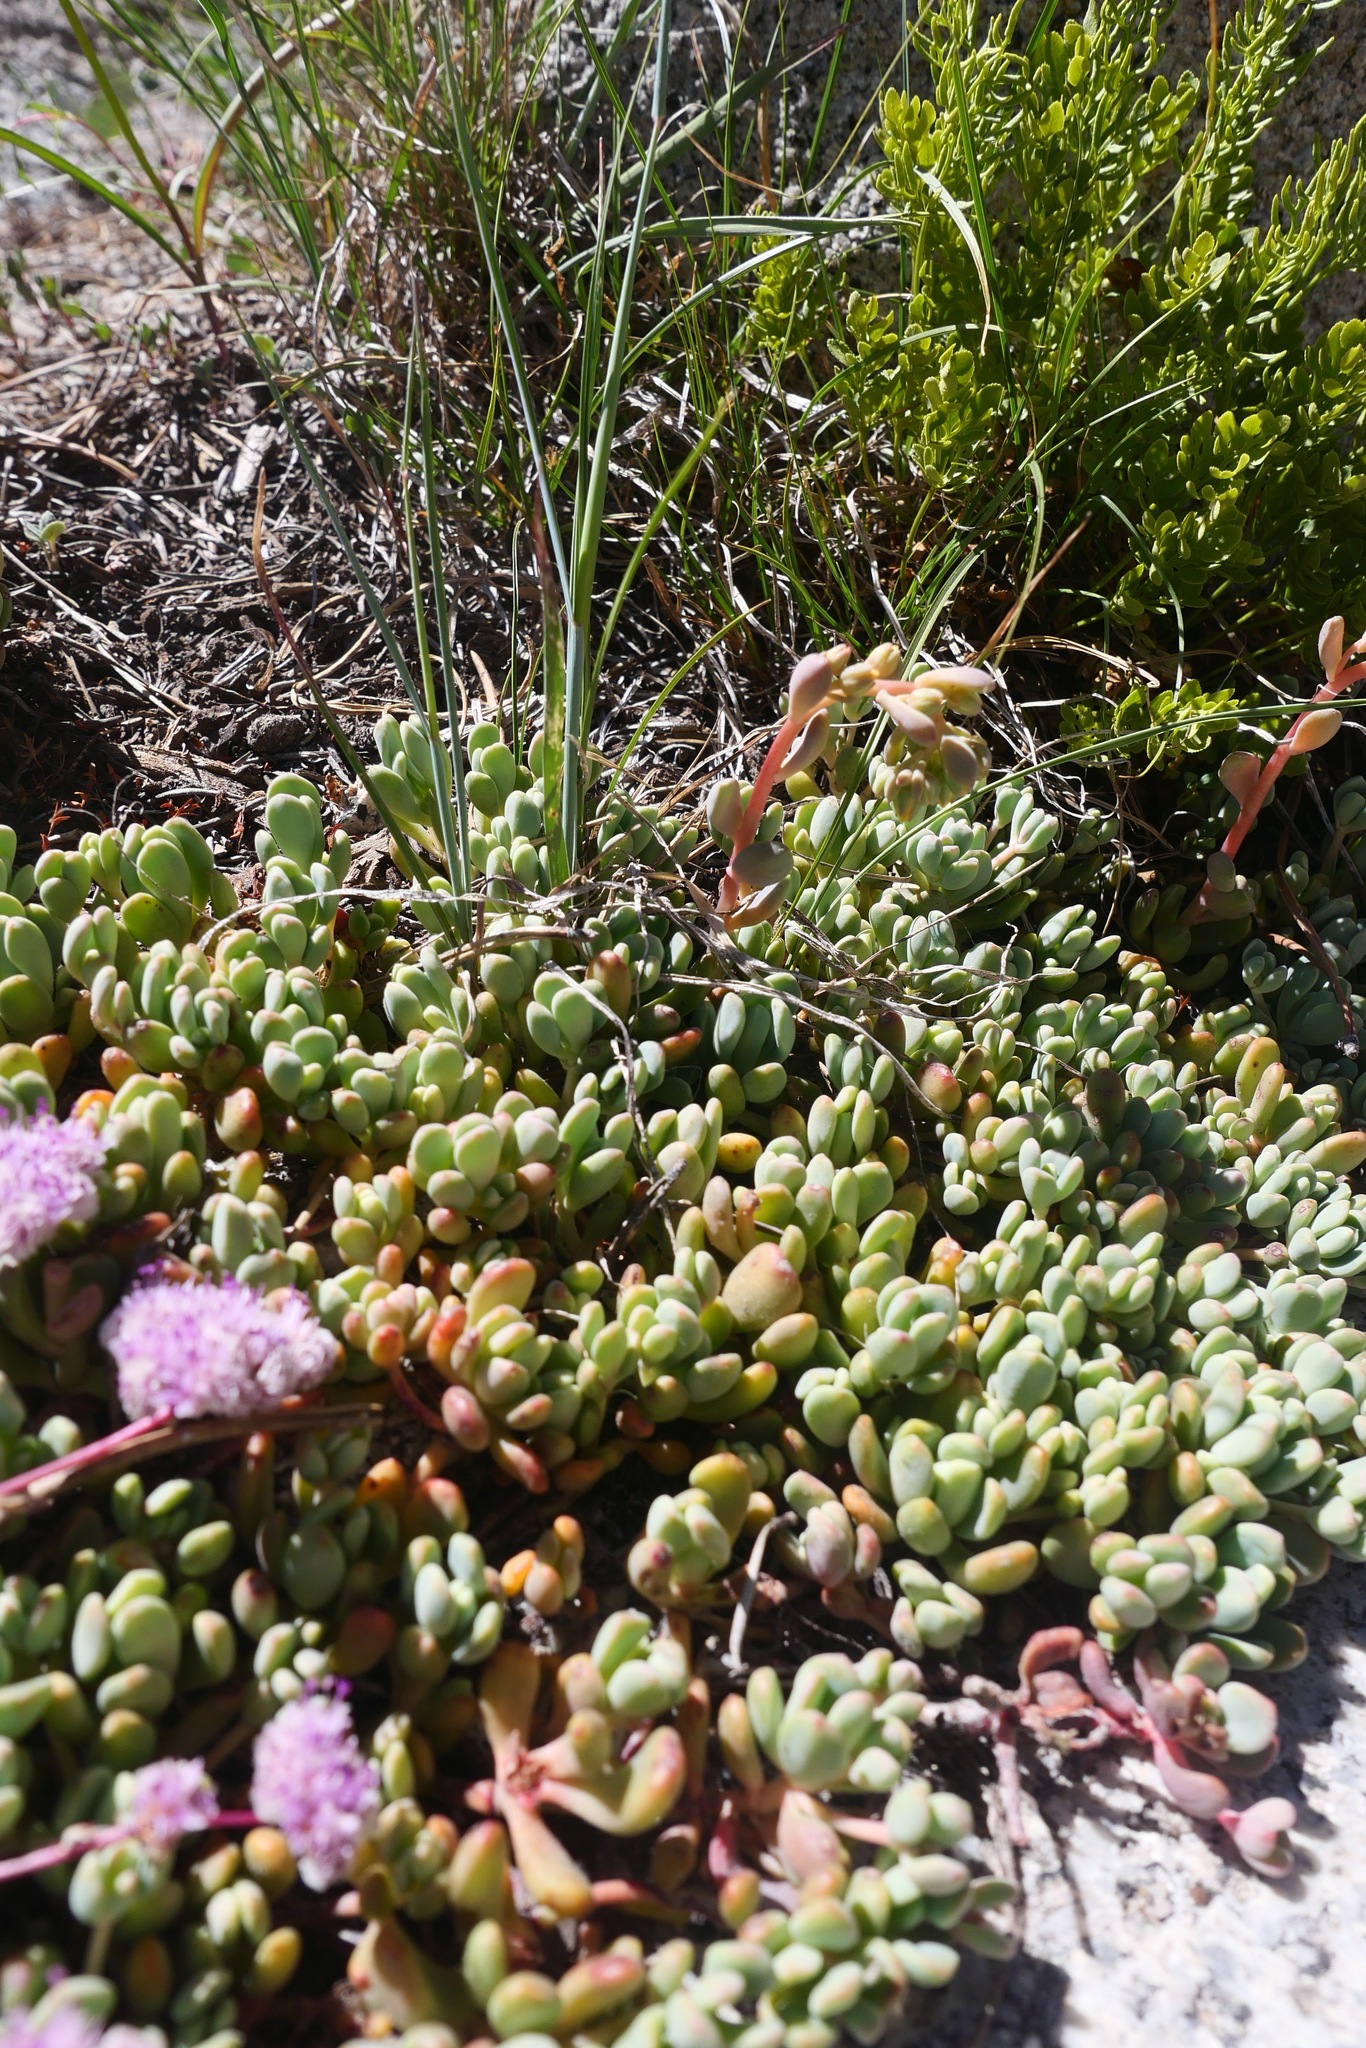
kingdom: Plantae
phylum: Tracheophyta
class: Magnoliopsida
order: Saxifragales
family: Crassulaceae
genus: Sedum
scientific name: Sedum obtusatum
